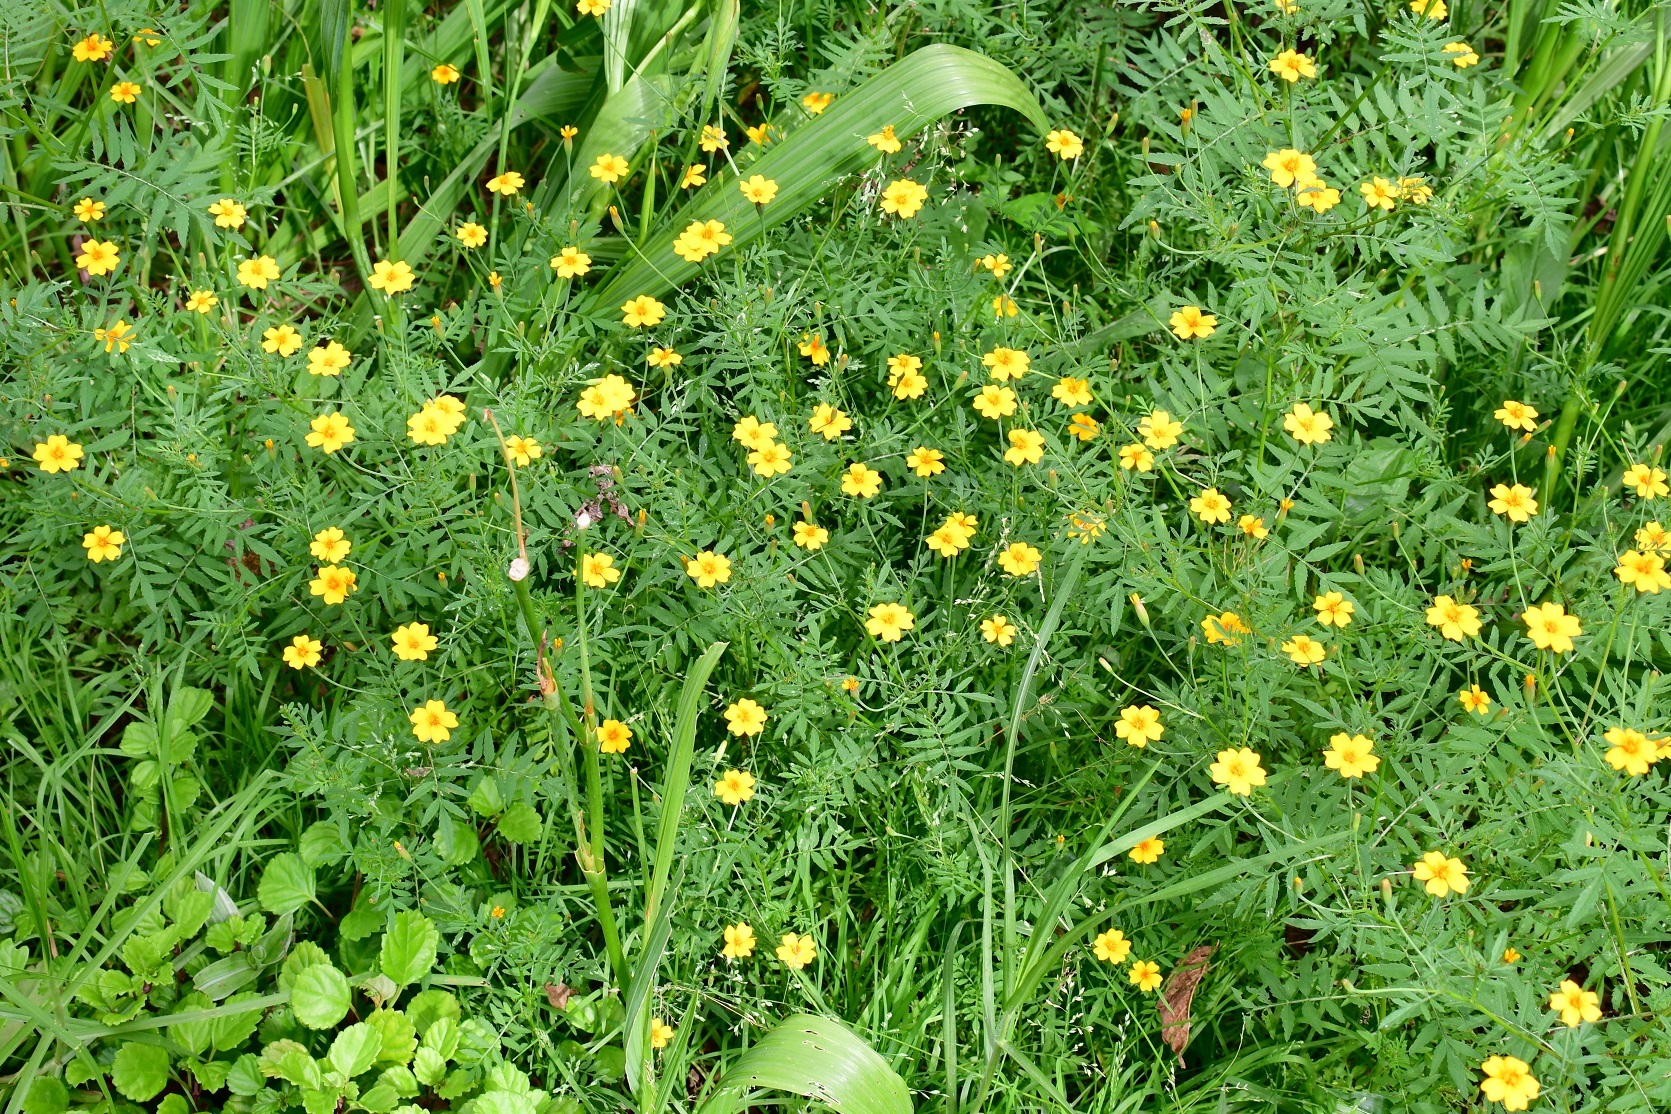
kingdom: Plantae
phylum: Tracheophyta
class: Magnoliopsida
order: Asterales
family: Asteraceae
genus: Tagetes
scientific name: Tagetes tenuifolia
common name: Signet marigold
